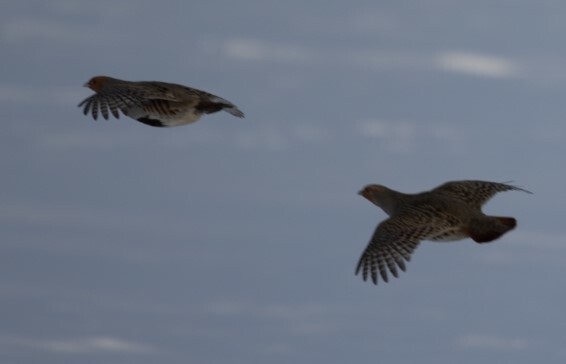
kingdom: Animalia
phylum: Chordata
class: Aves
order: Galliformes
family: Phasianidae
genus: Perdix
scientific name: Perdix perdix
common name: Grey partridge
